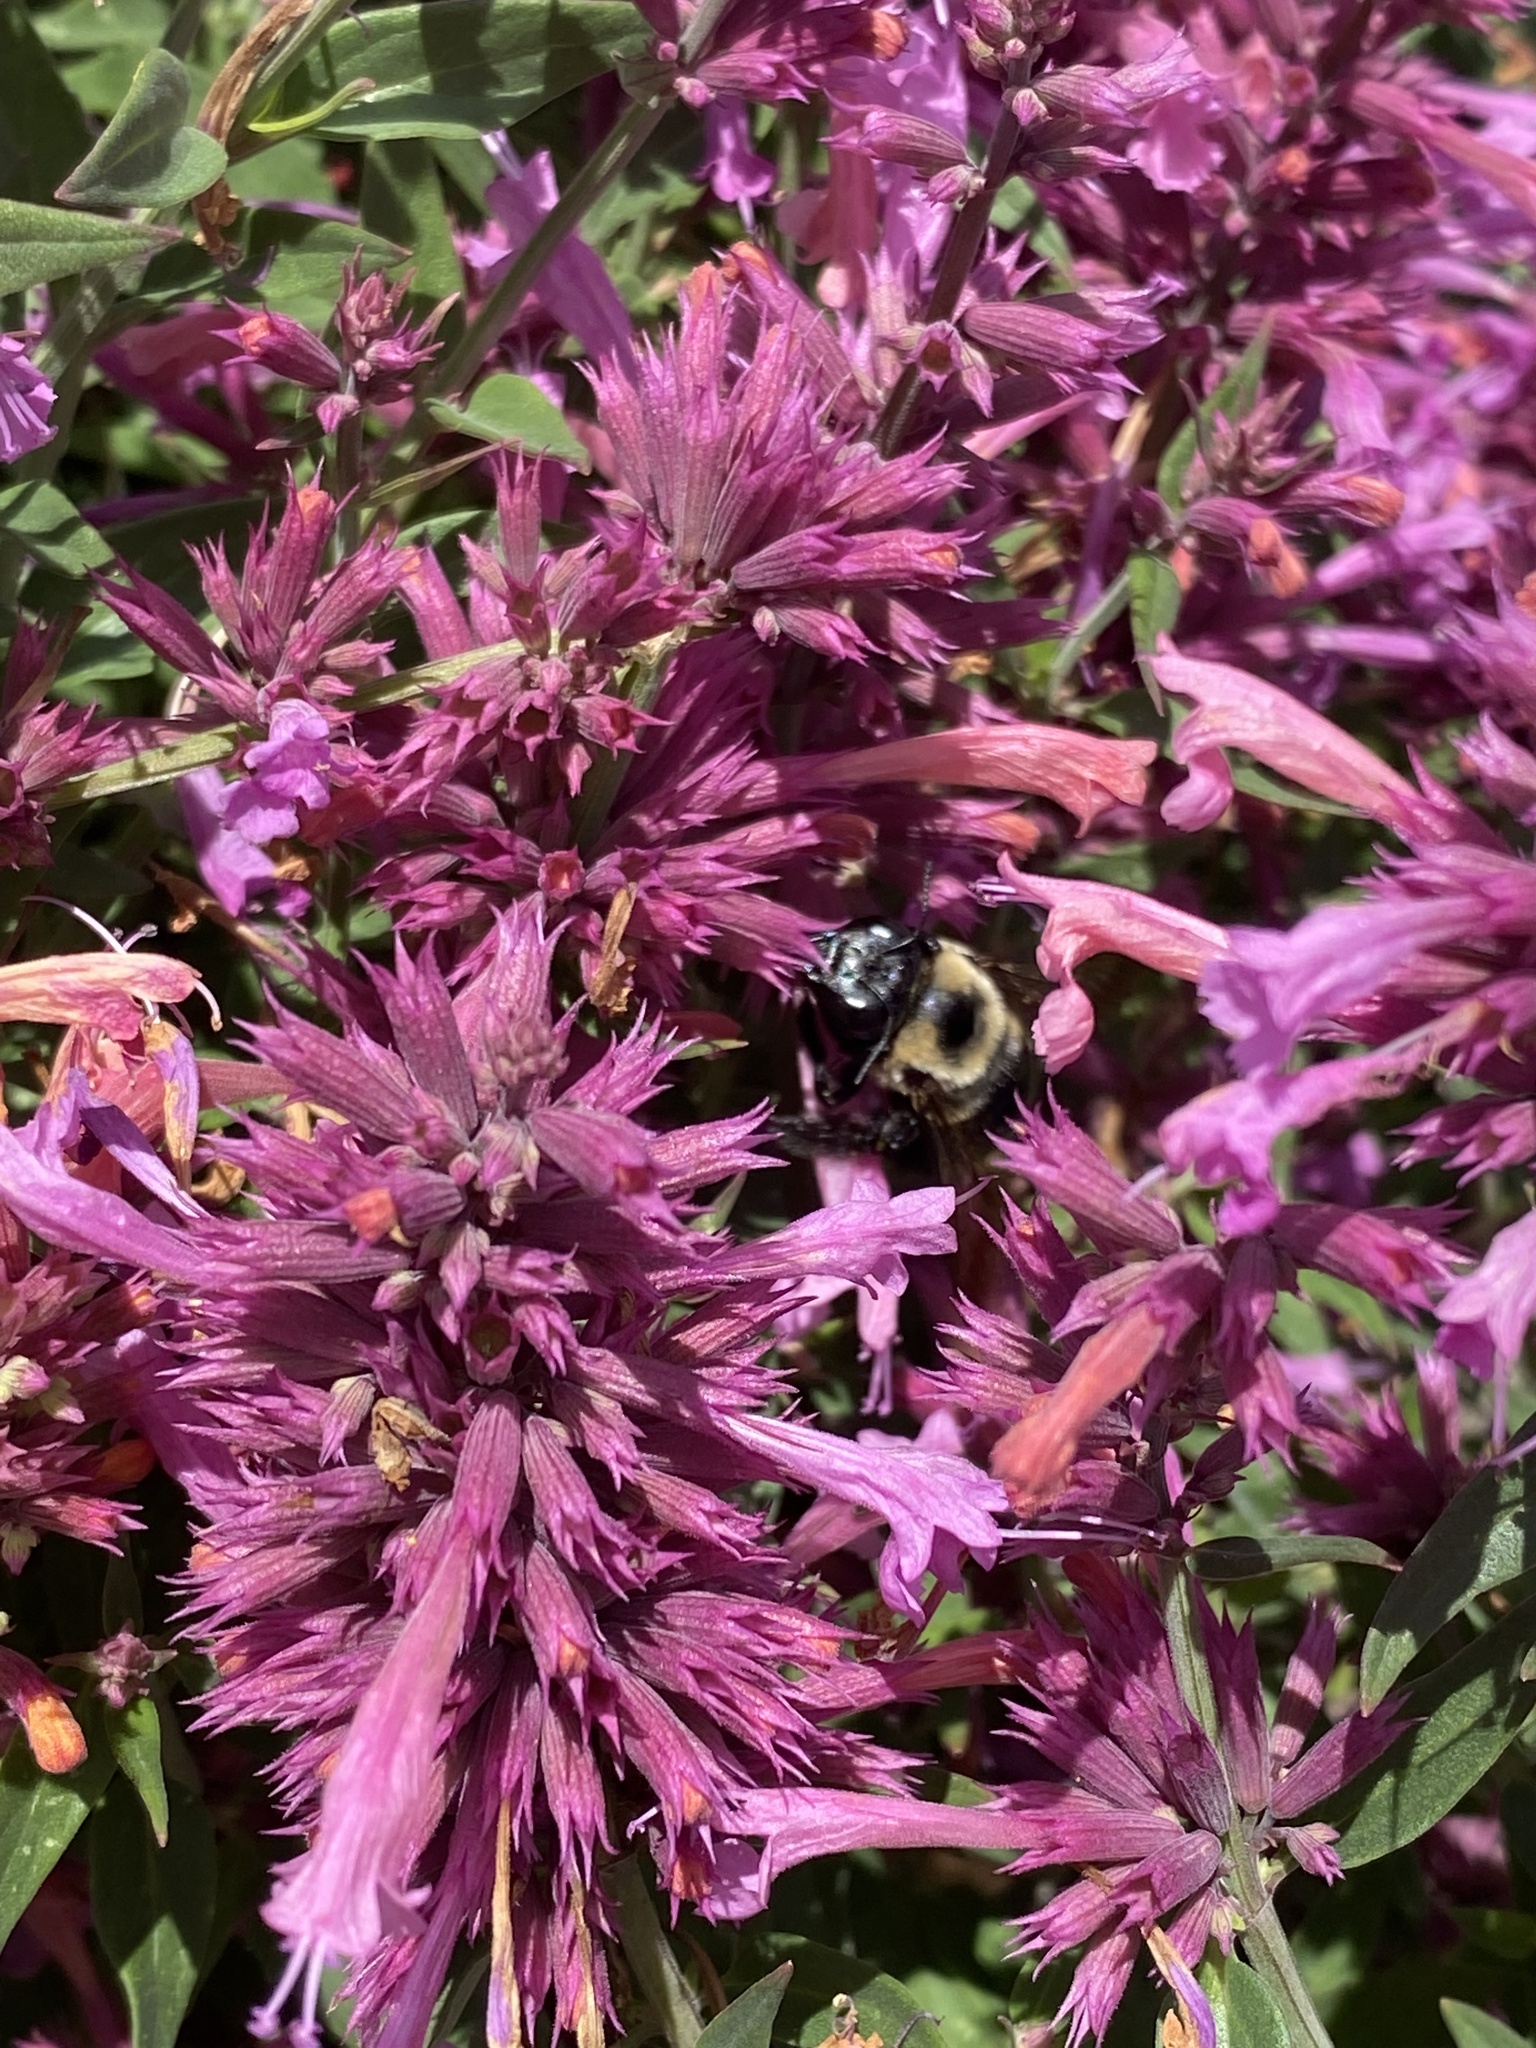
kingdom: Animalia
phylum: Arthropoda
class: Insecta
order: Hymenoptera
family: Apidae
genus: Xylocopa
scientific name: Xylocopa virginica
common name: Carpenter bee
